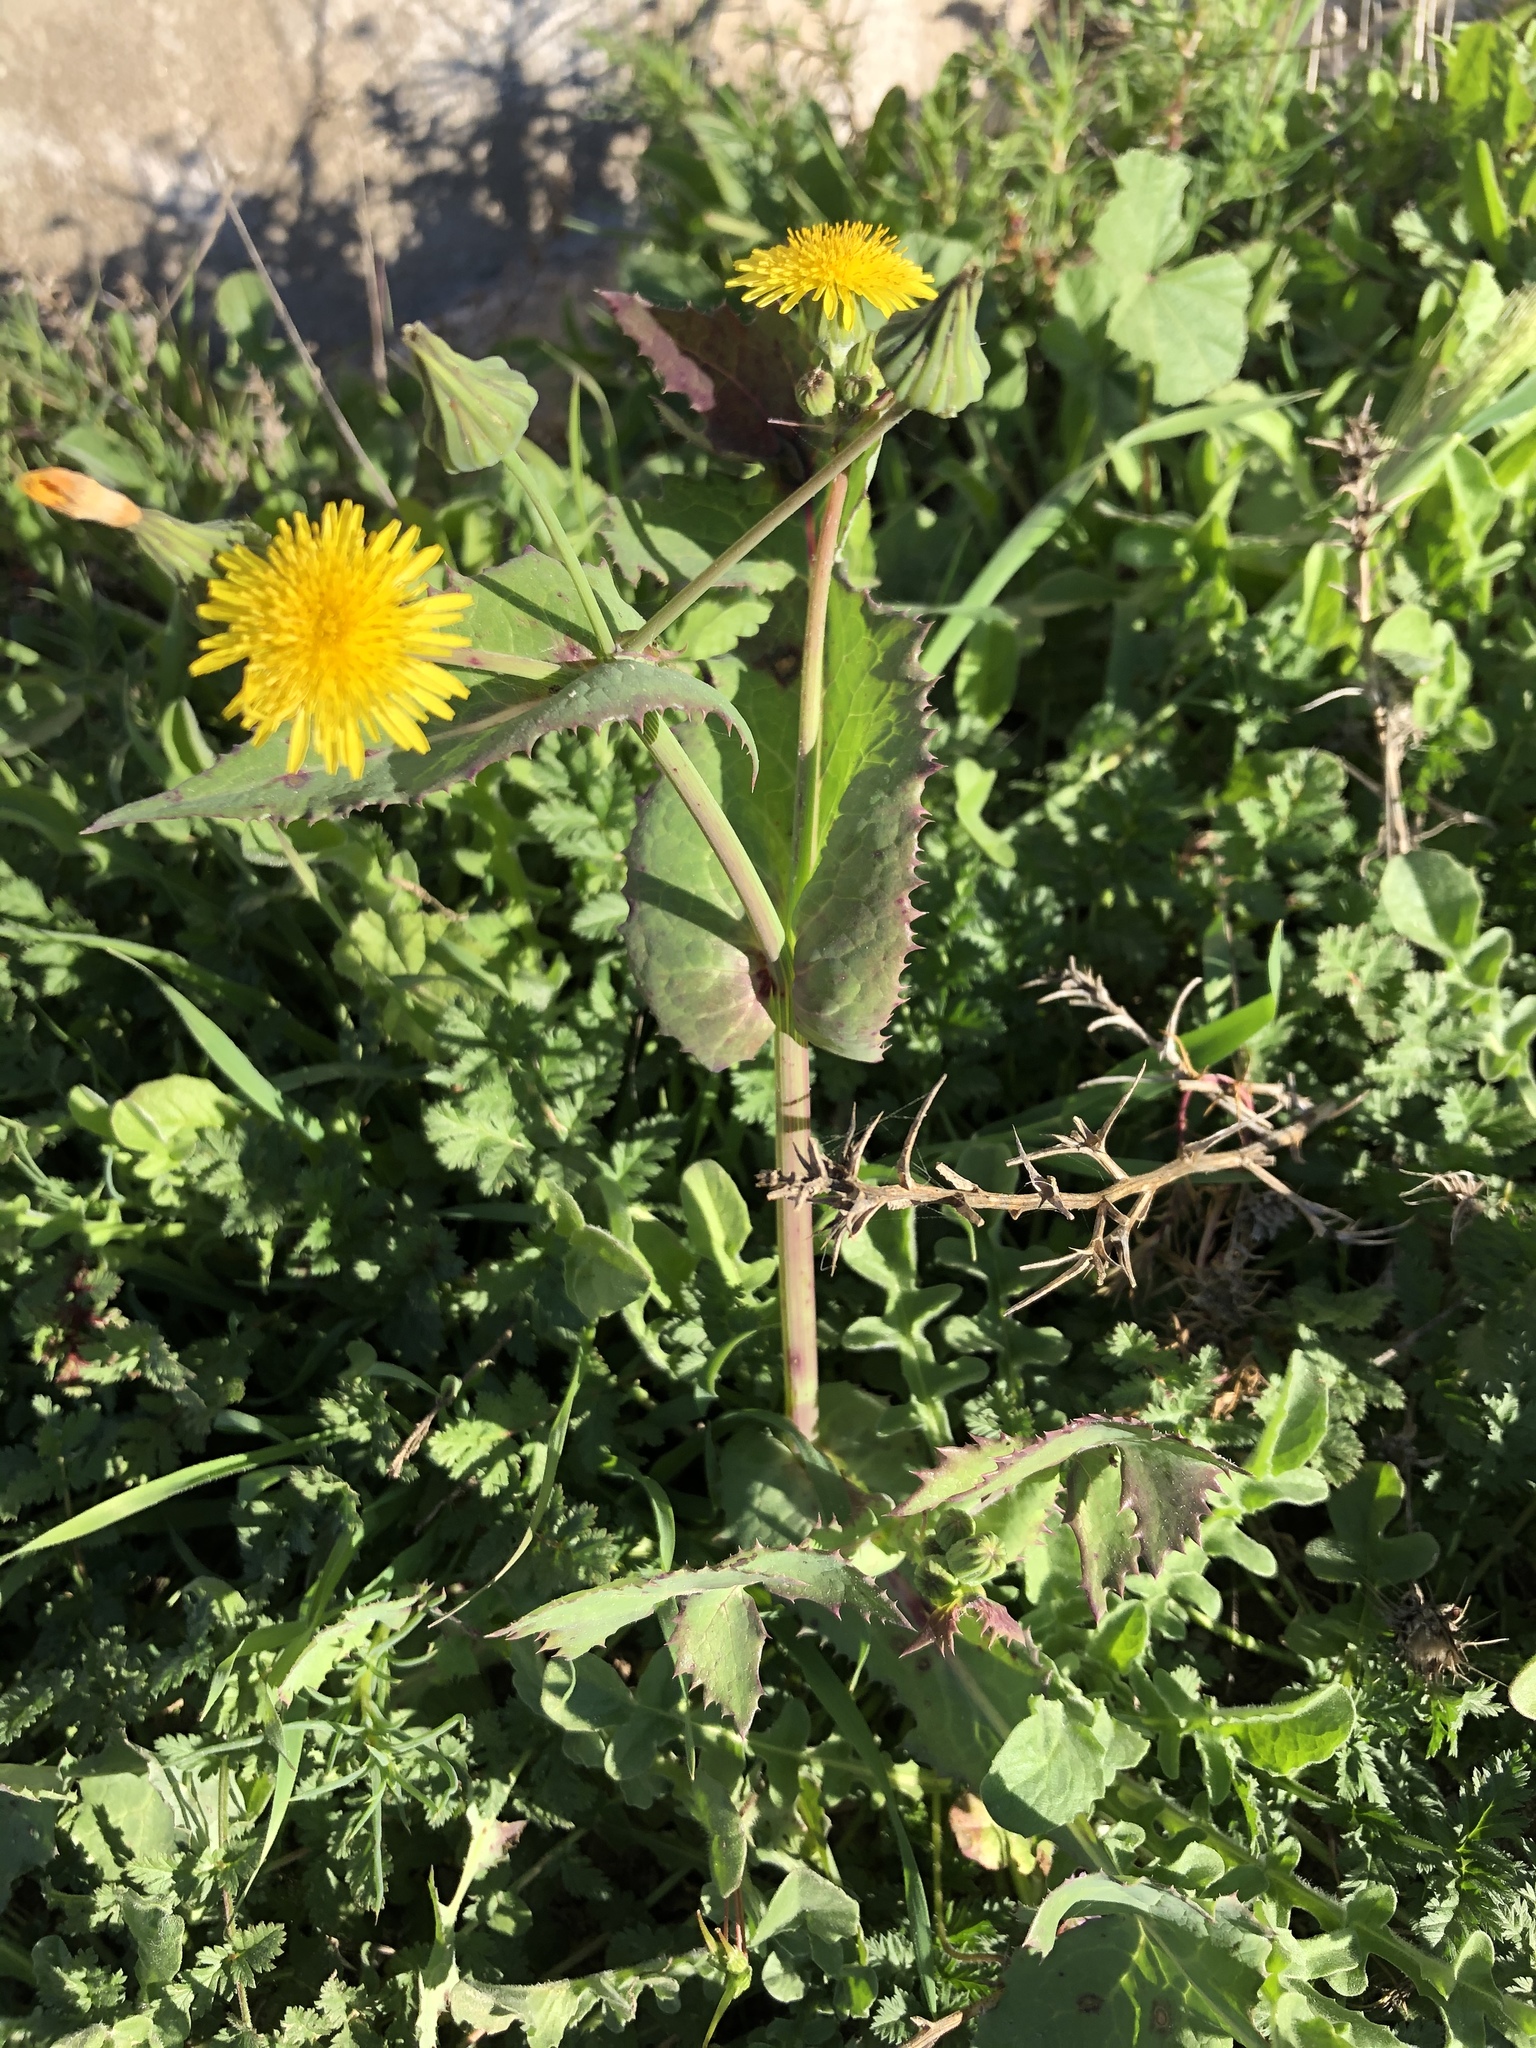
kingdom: Plantae
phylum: Tracheophyta
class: Magnoliopsida
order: Asterales
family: Asteraceae
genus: Sonchus
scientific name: Sonchus oleraceus
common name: Common sowthistle
